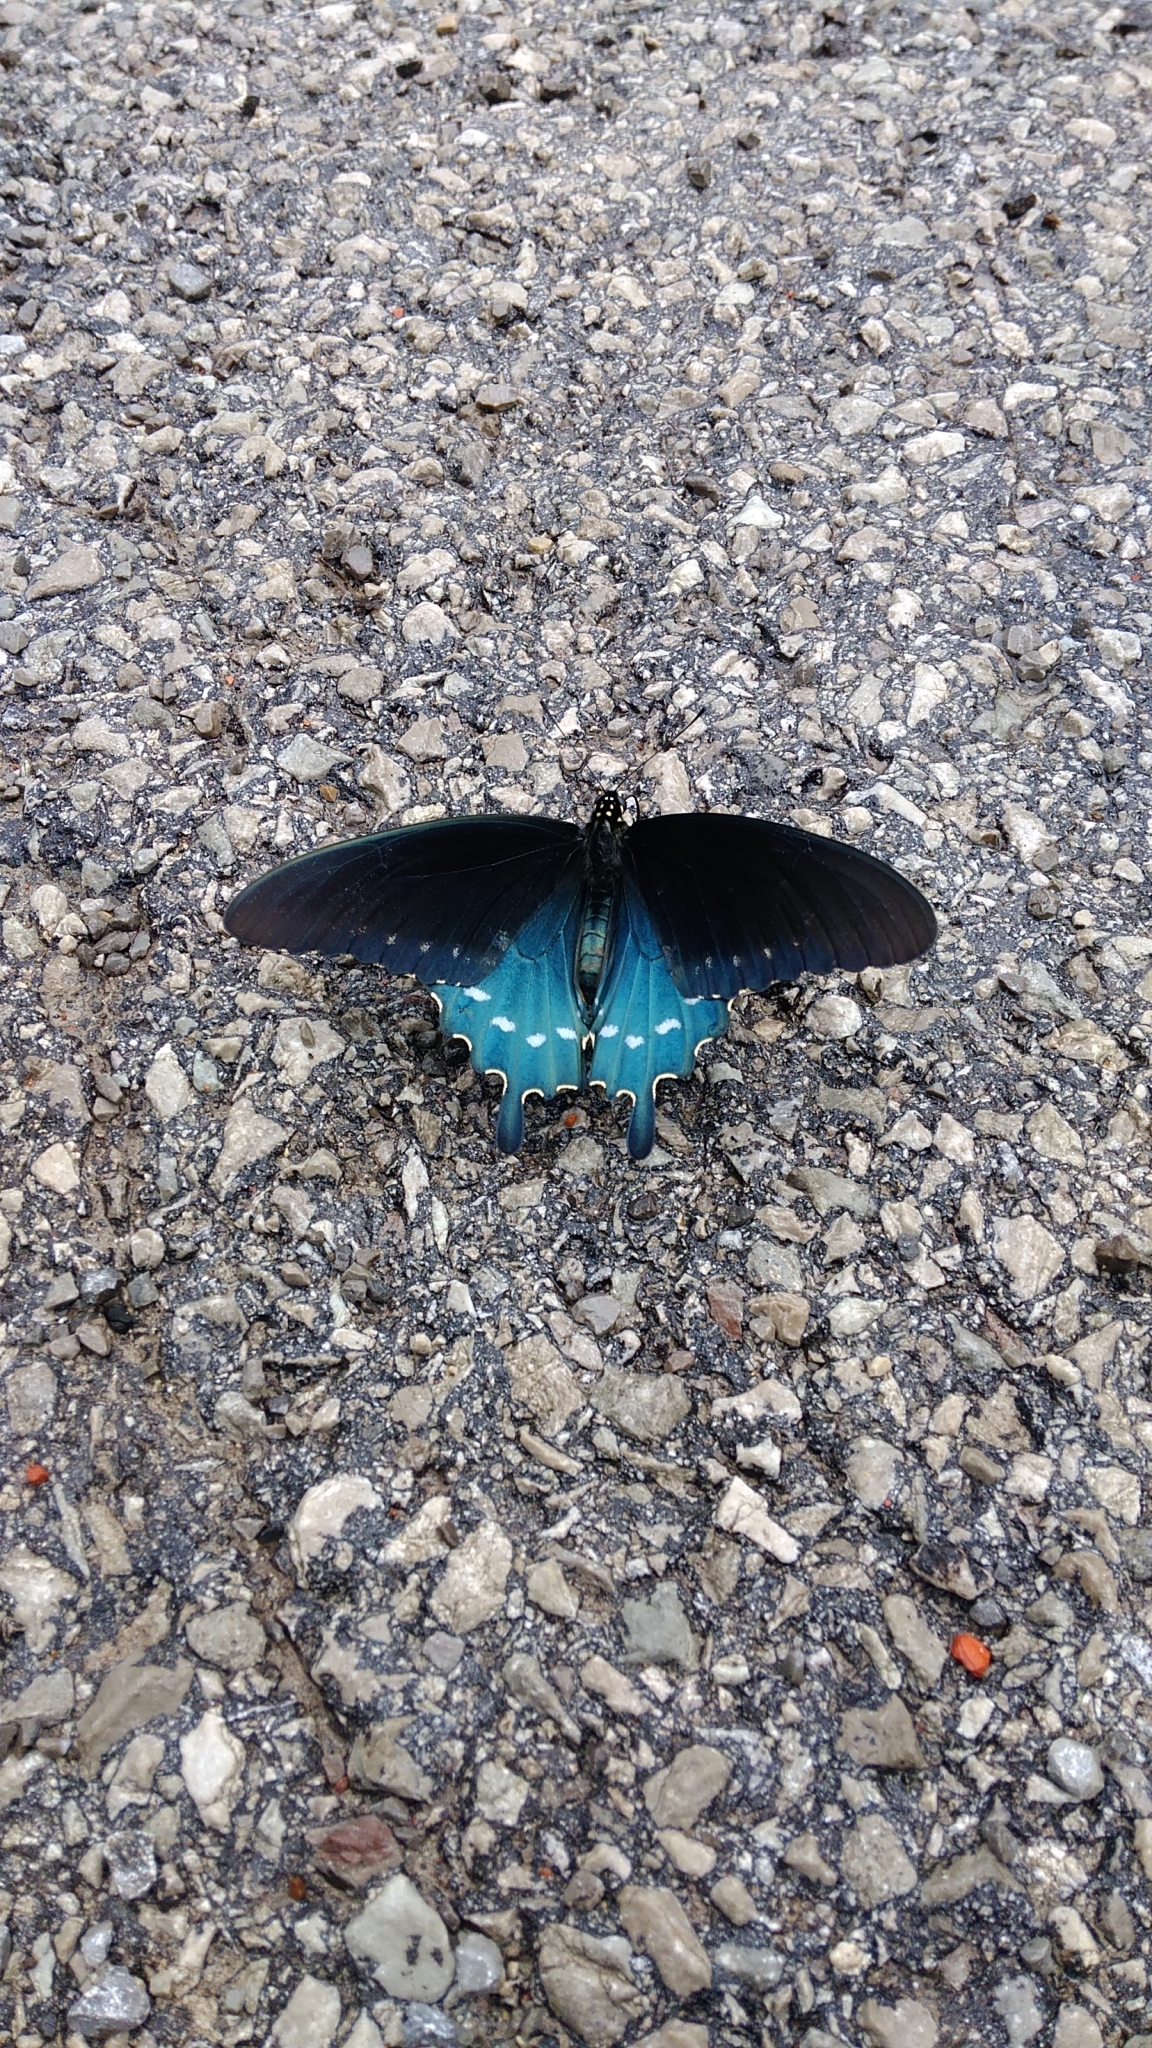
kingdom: Animalia
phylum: Arthropoda
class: Insecta
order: Lepidoptera
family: Papilionidae
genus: Battus
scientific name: Battus philenor
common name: Pipevine swallowtail
